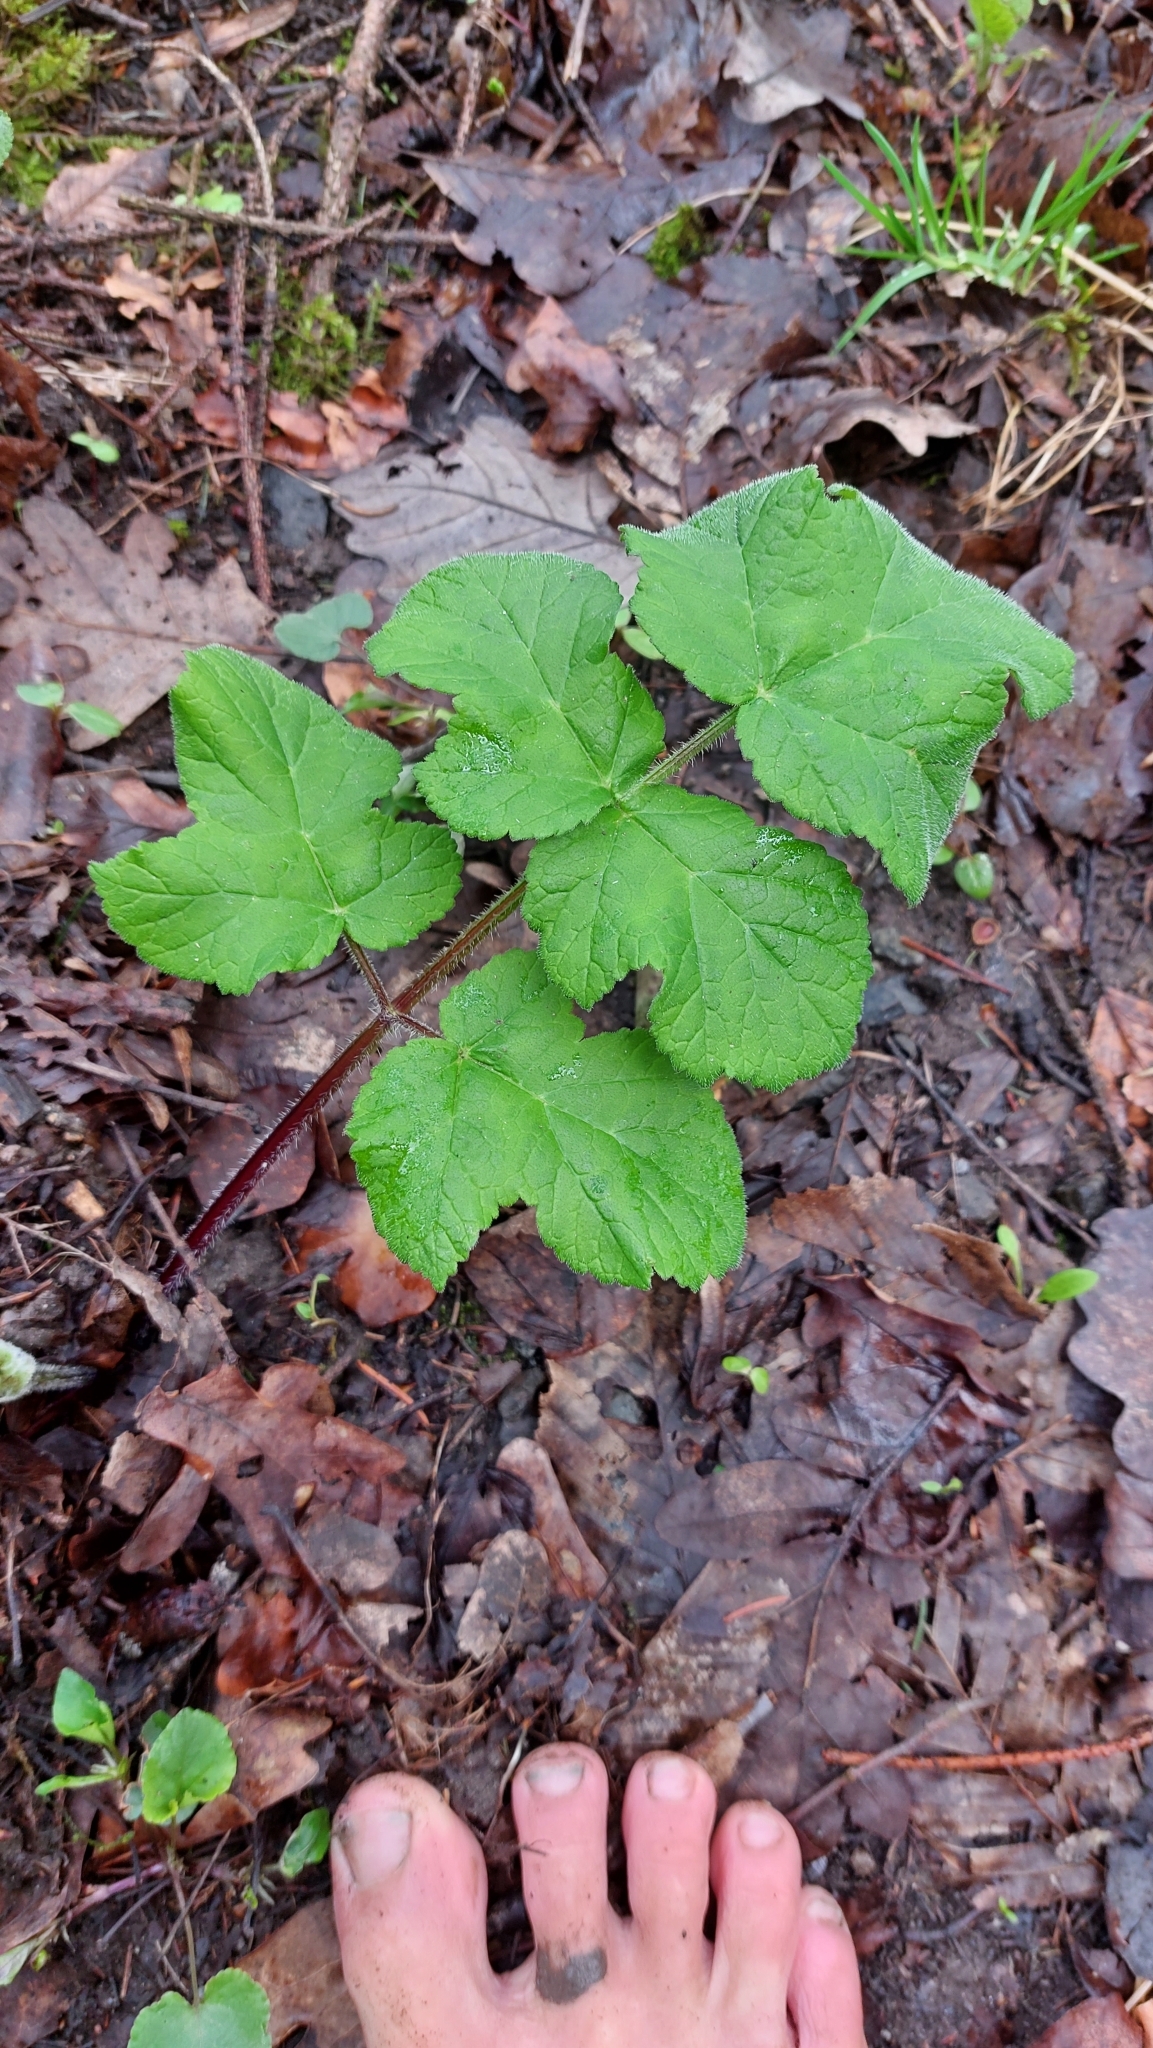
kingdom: Plantae
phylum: Tracheophyta
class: Magnoliopsida
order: Apiales
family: Apiaceae
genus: Heracleum
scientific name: Heracleum sphondylium
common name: Hogweed
